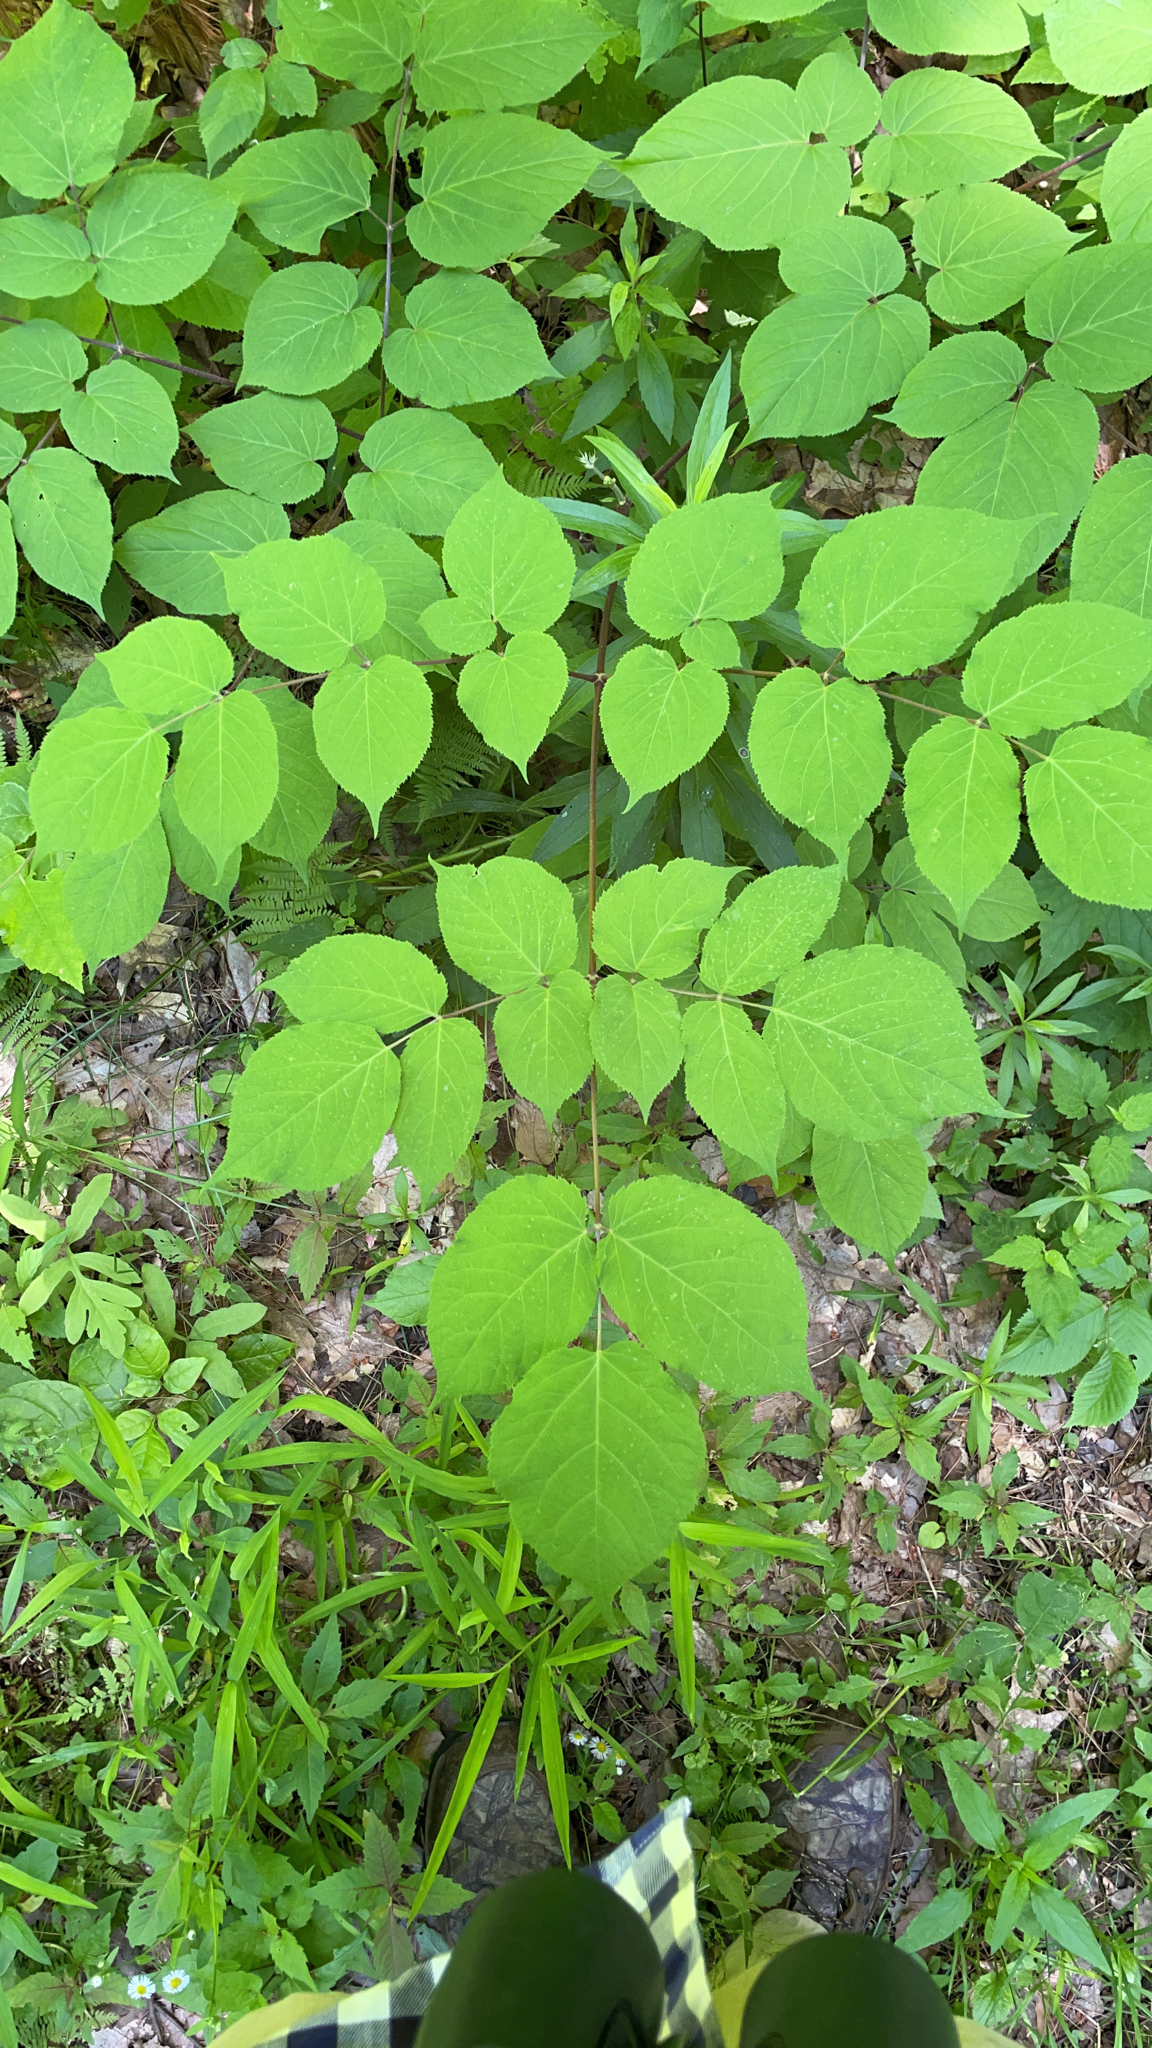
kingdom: Plantae
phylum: Tracheophyta
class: Magnoliopsida
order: Apiales
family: Araliaceae
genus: Aralia
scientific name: Aralia racemosa
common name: American-spikenard
